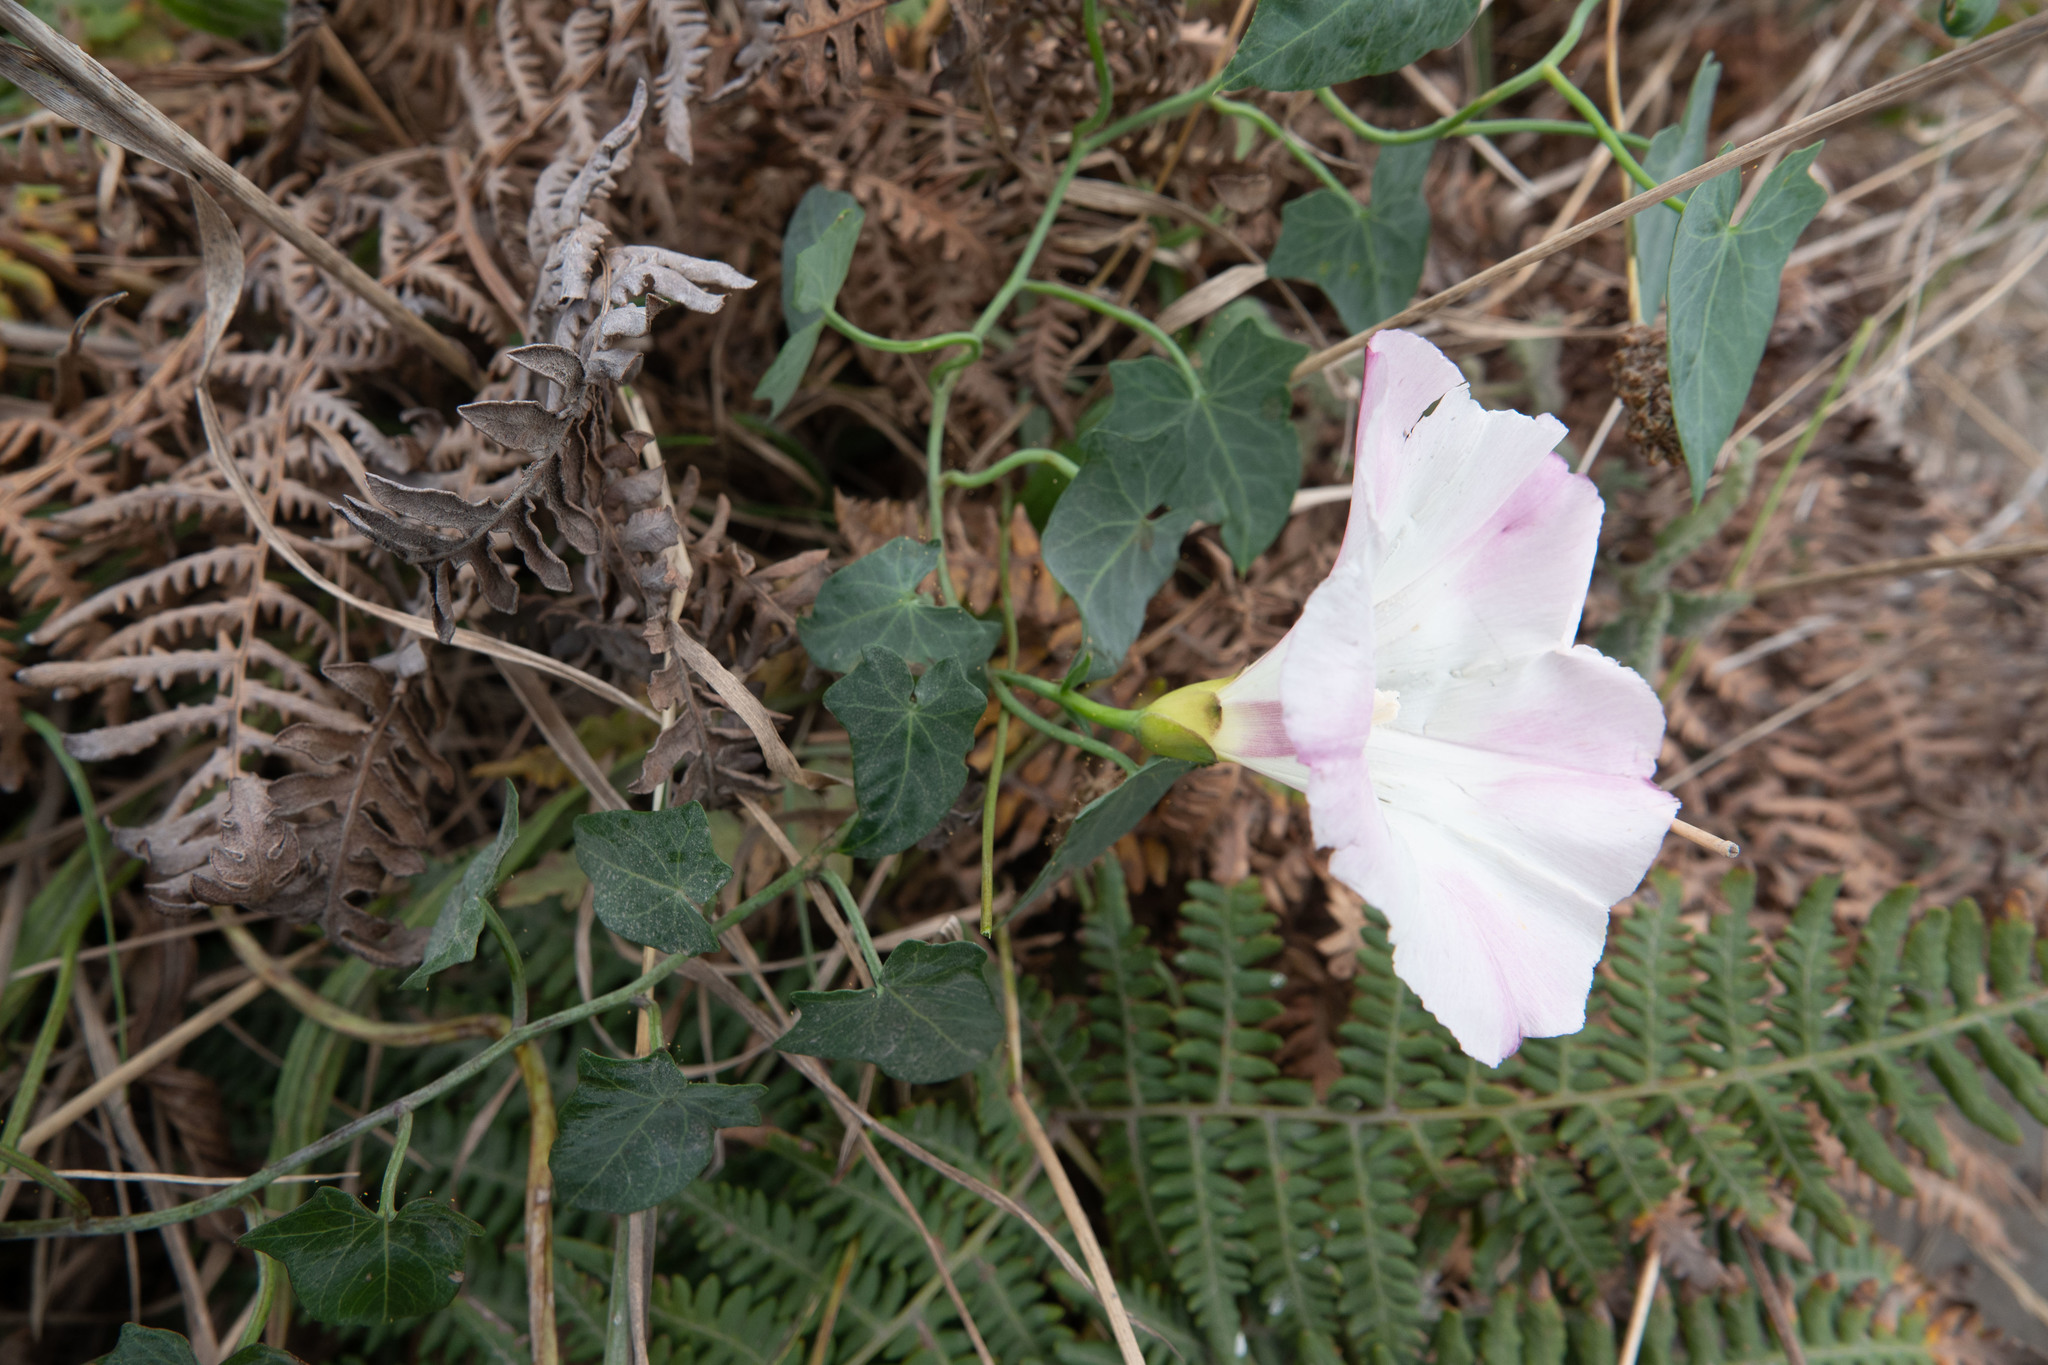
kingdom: Plantae
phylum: Tracheophyta
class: Magnoliopsida
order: Solanales
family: Convolvulaceae
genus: Calystegia
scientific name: Calystegia purpurata
